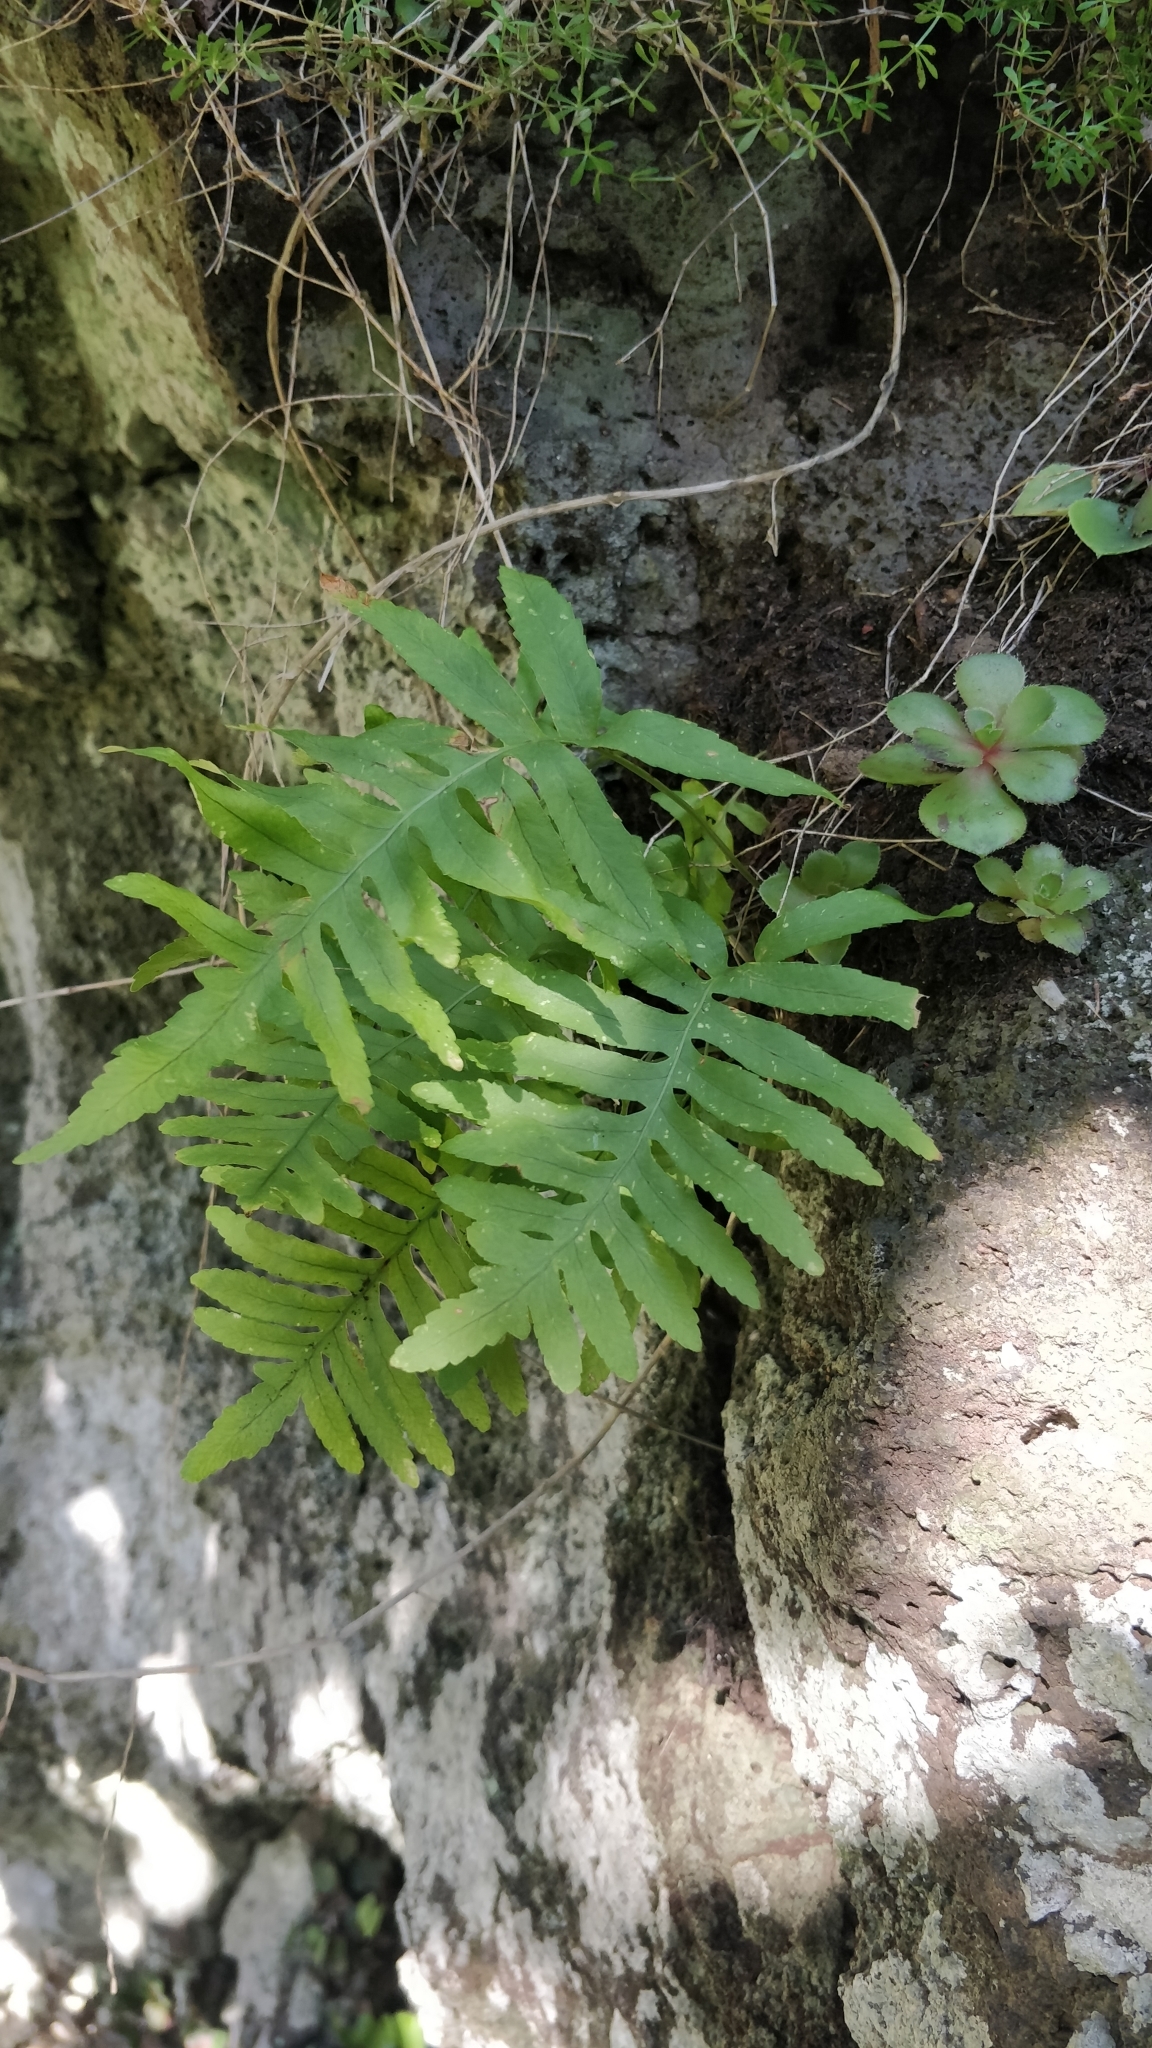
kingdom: Plantae
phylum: Tracheophyta
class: Polypodiopsida
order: Polypodiales
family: Polypodiaceae
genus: Polypodium
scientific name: Polypodium macaronesicum
